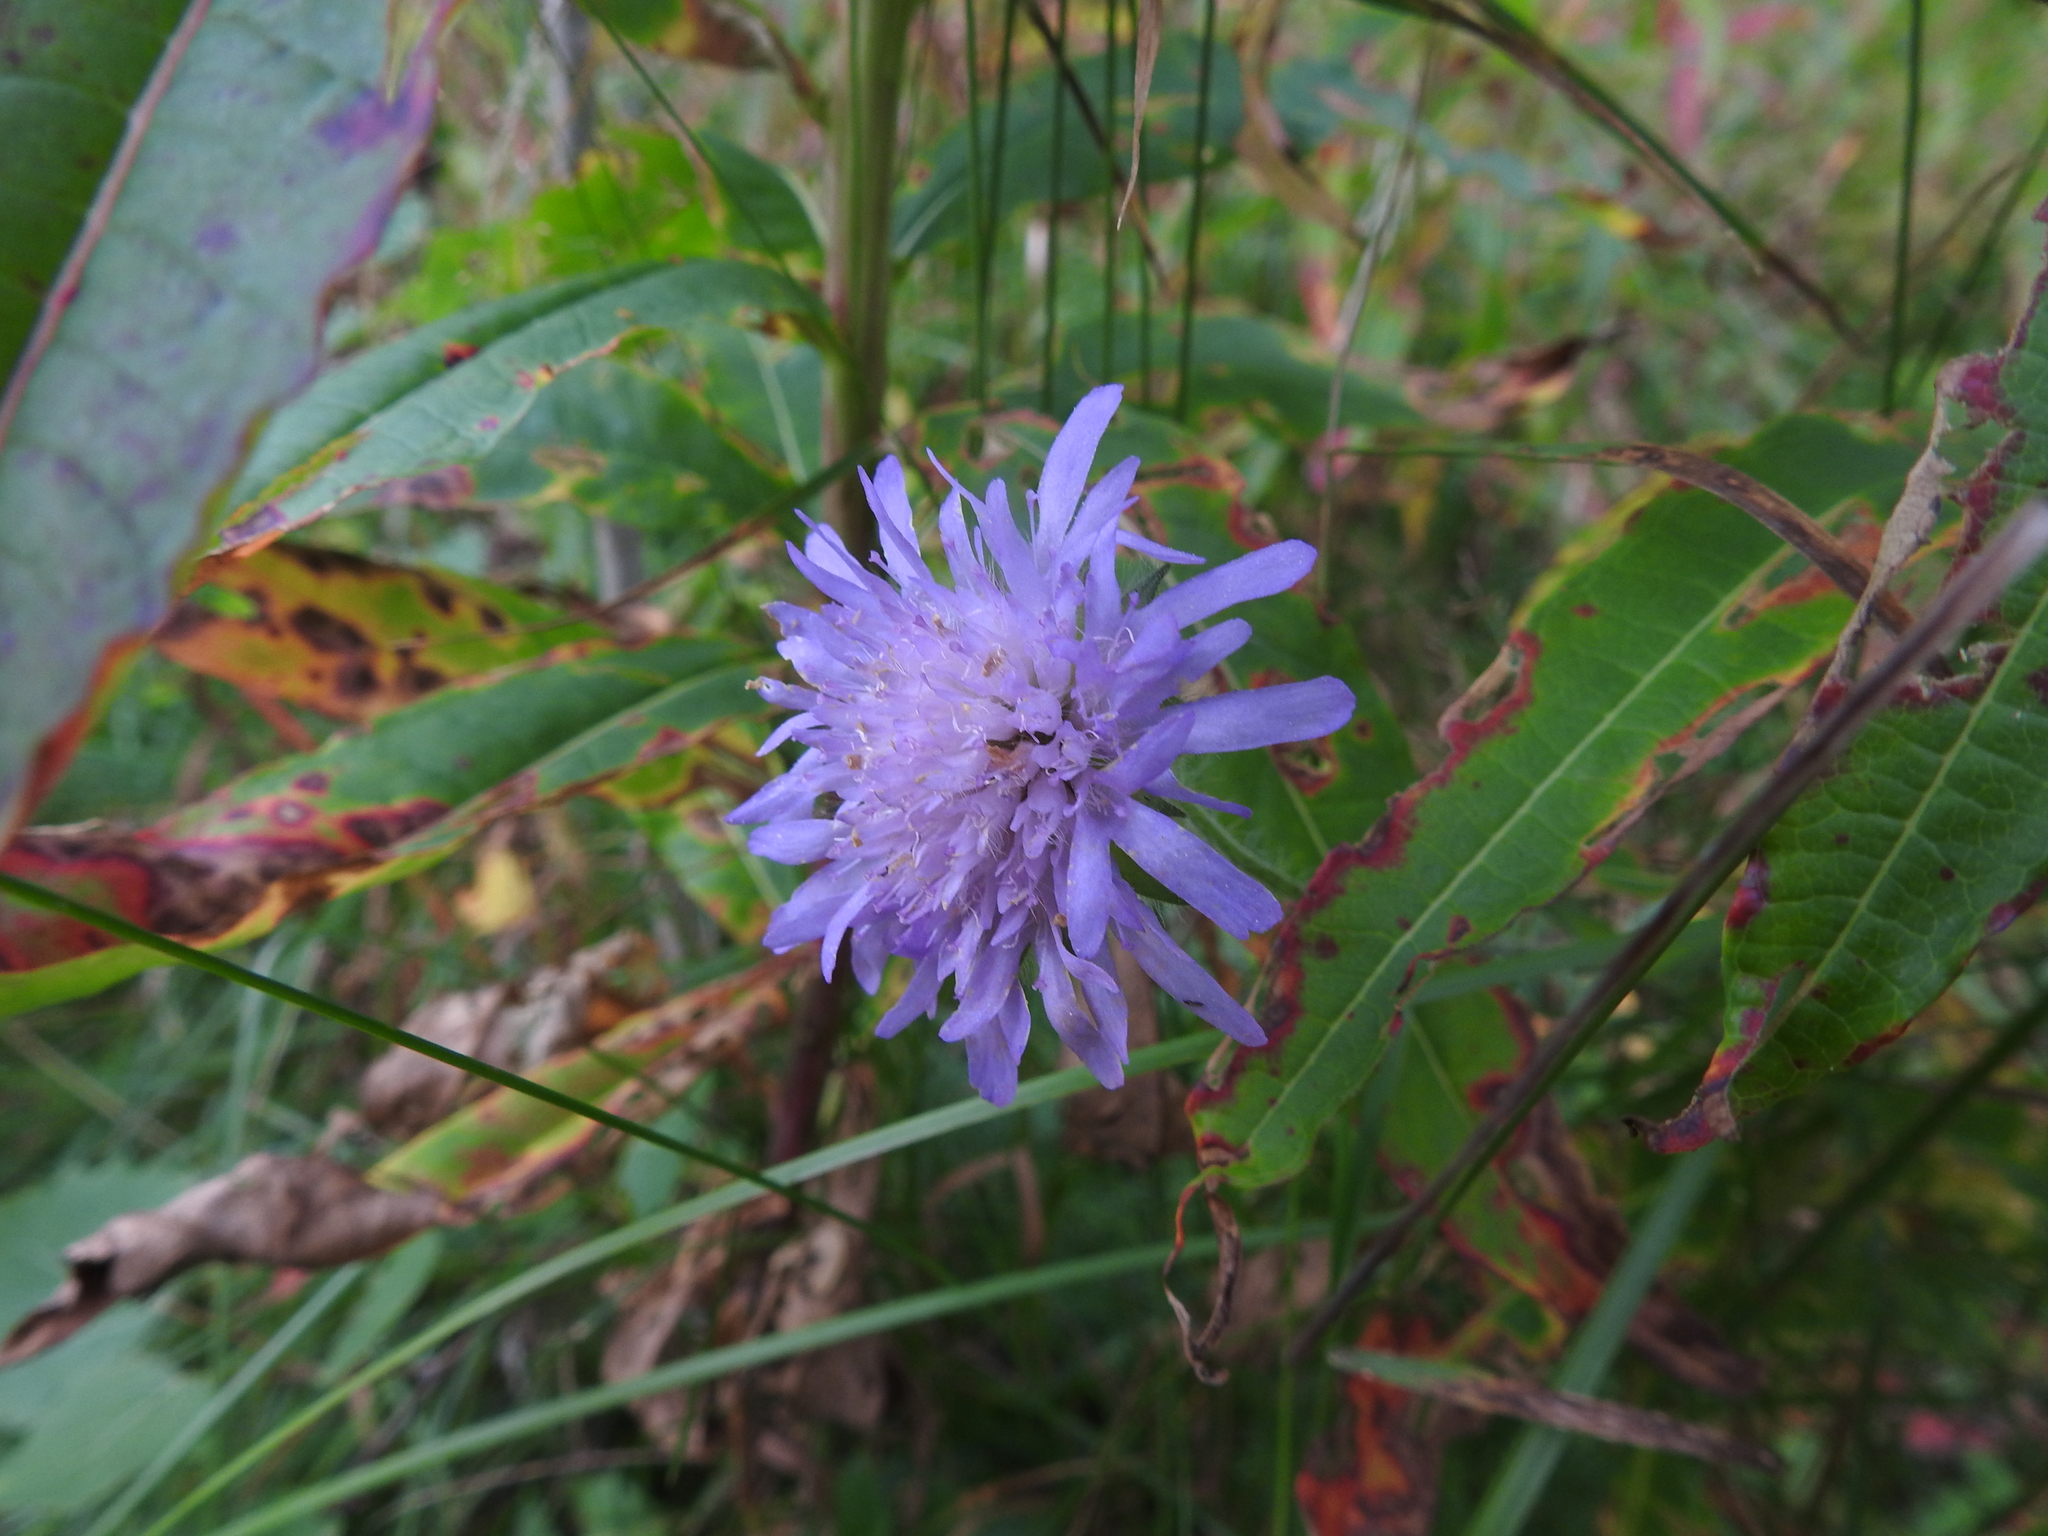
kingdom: Plantae
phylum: Tracheophyta
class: Magnoliopsida
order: Dipsacales
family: Caprifoliaceae
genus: Knautia
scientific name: Knautia arvensis
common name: Field scabiosa
